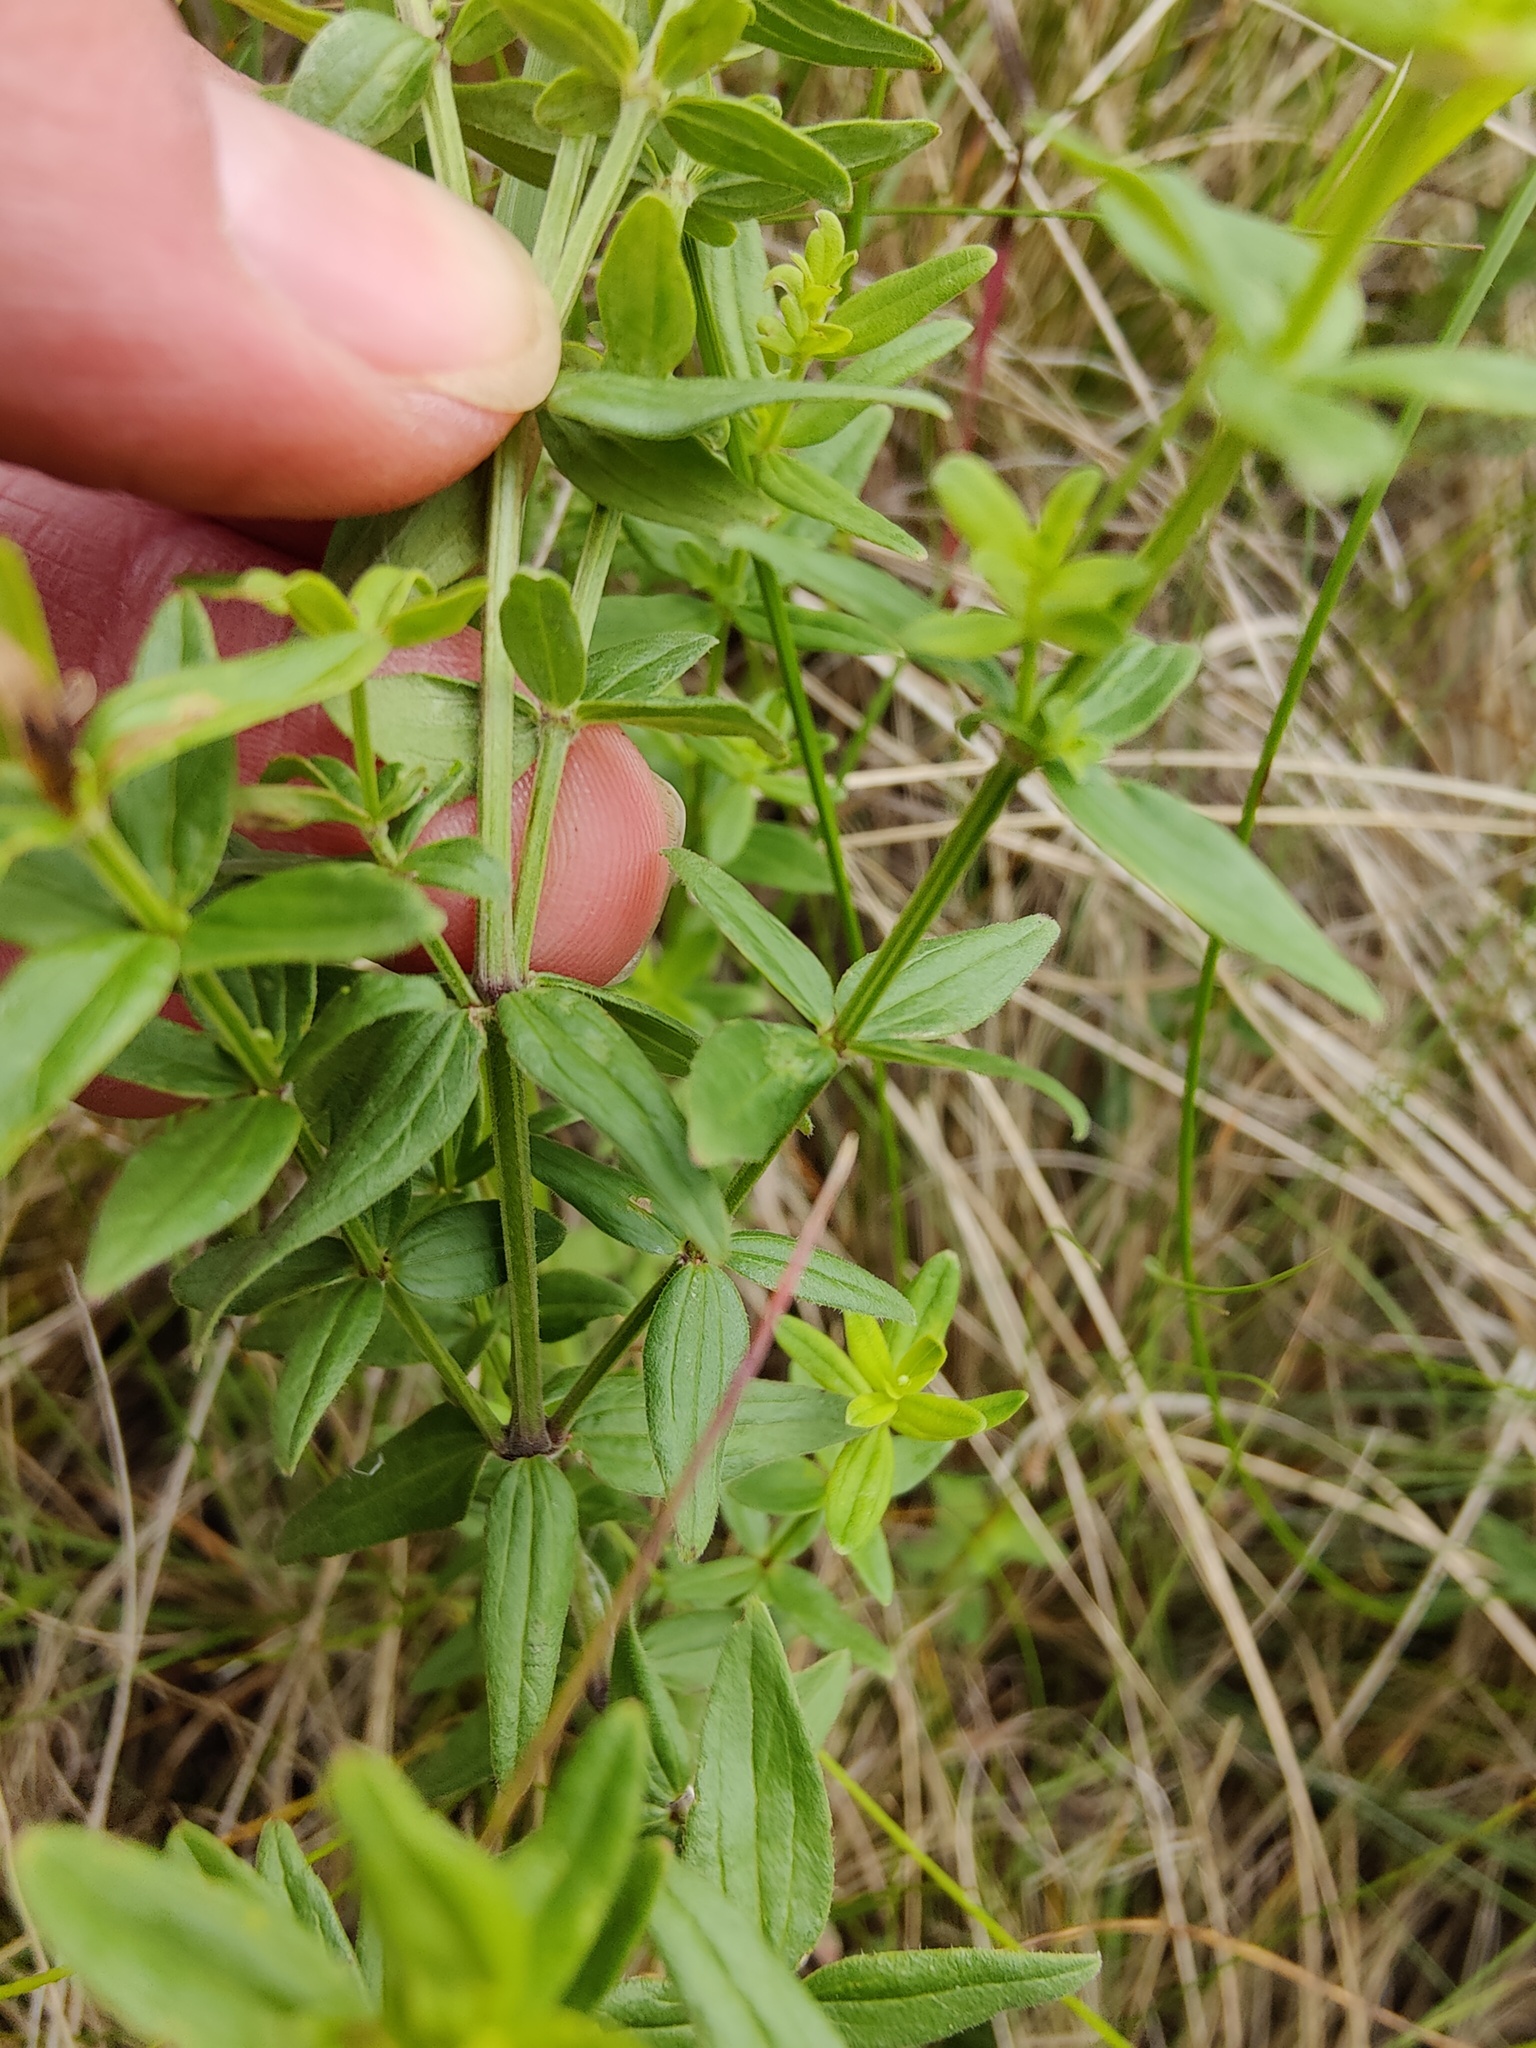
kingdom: Plantae
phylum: Tracheophyta
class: Magnoliopsida
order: Gentianales
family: Rubiaceae
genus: Galium
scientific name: Galium boreale
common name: Northern bedstraw
